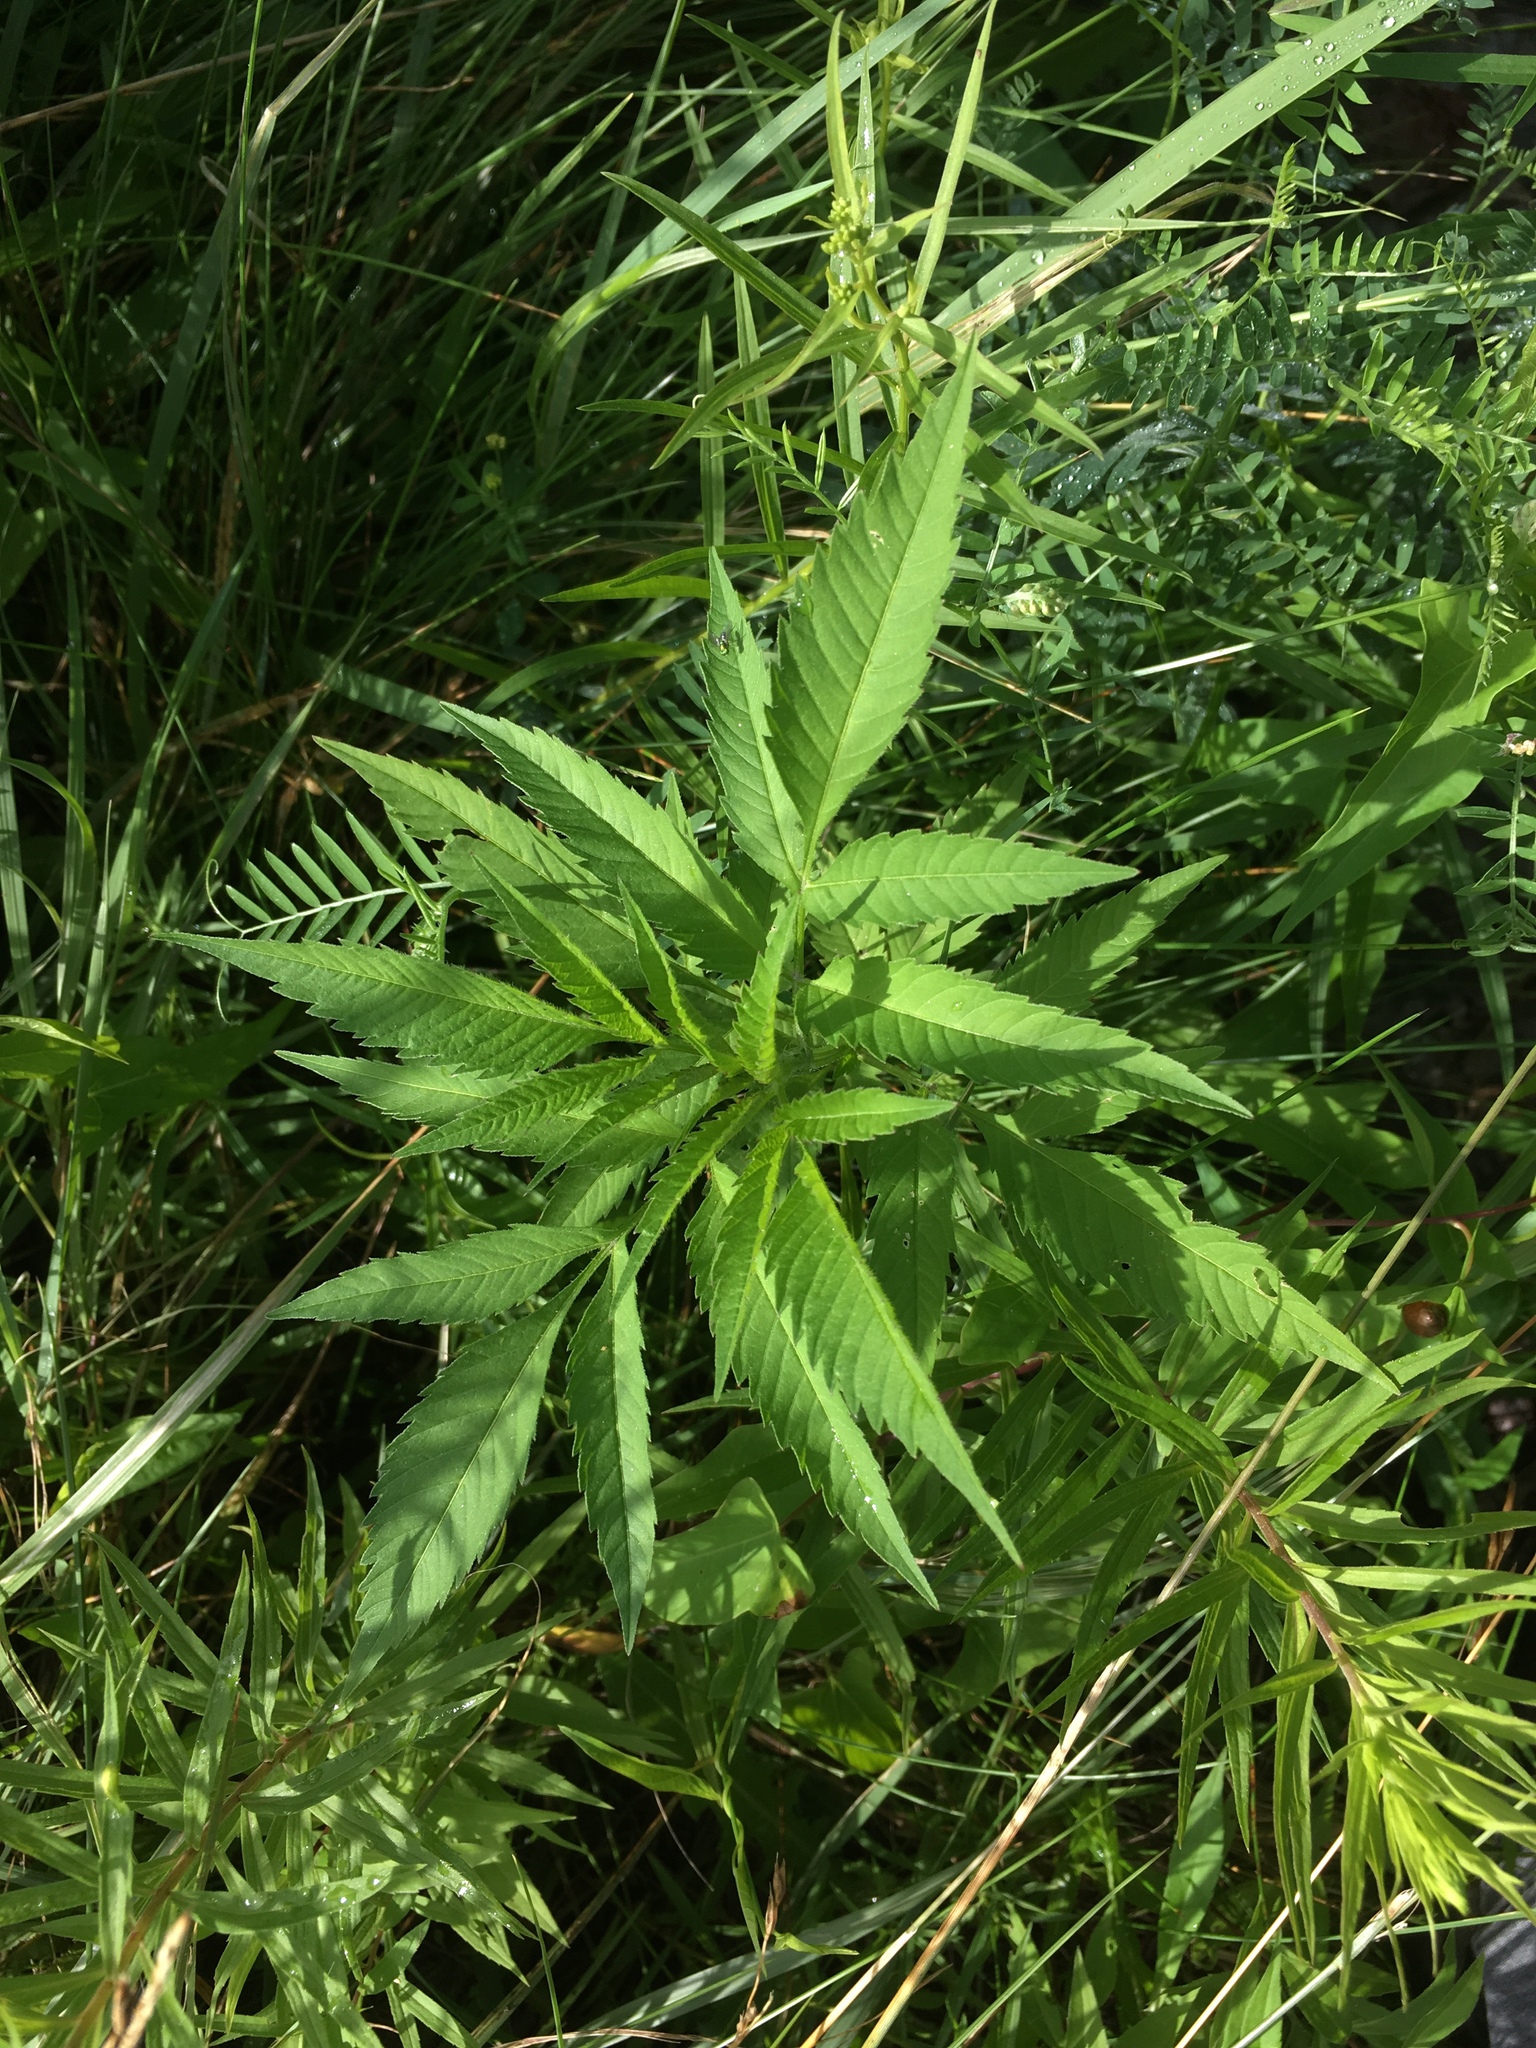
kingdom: Plantae
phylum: Tracheophyta
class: Magnoliopsida
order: Asterales
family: Asteraceae
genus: Bidens
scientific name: Bidens
